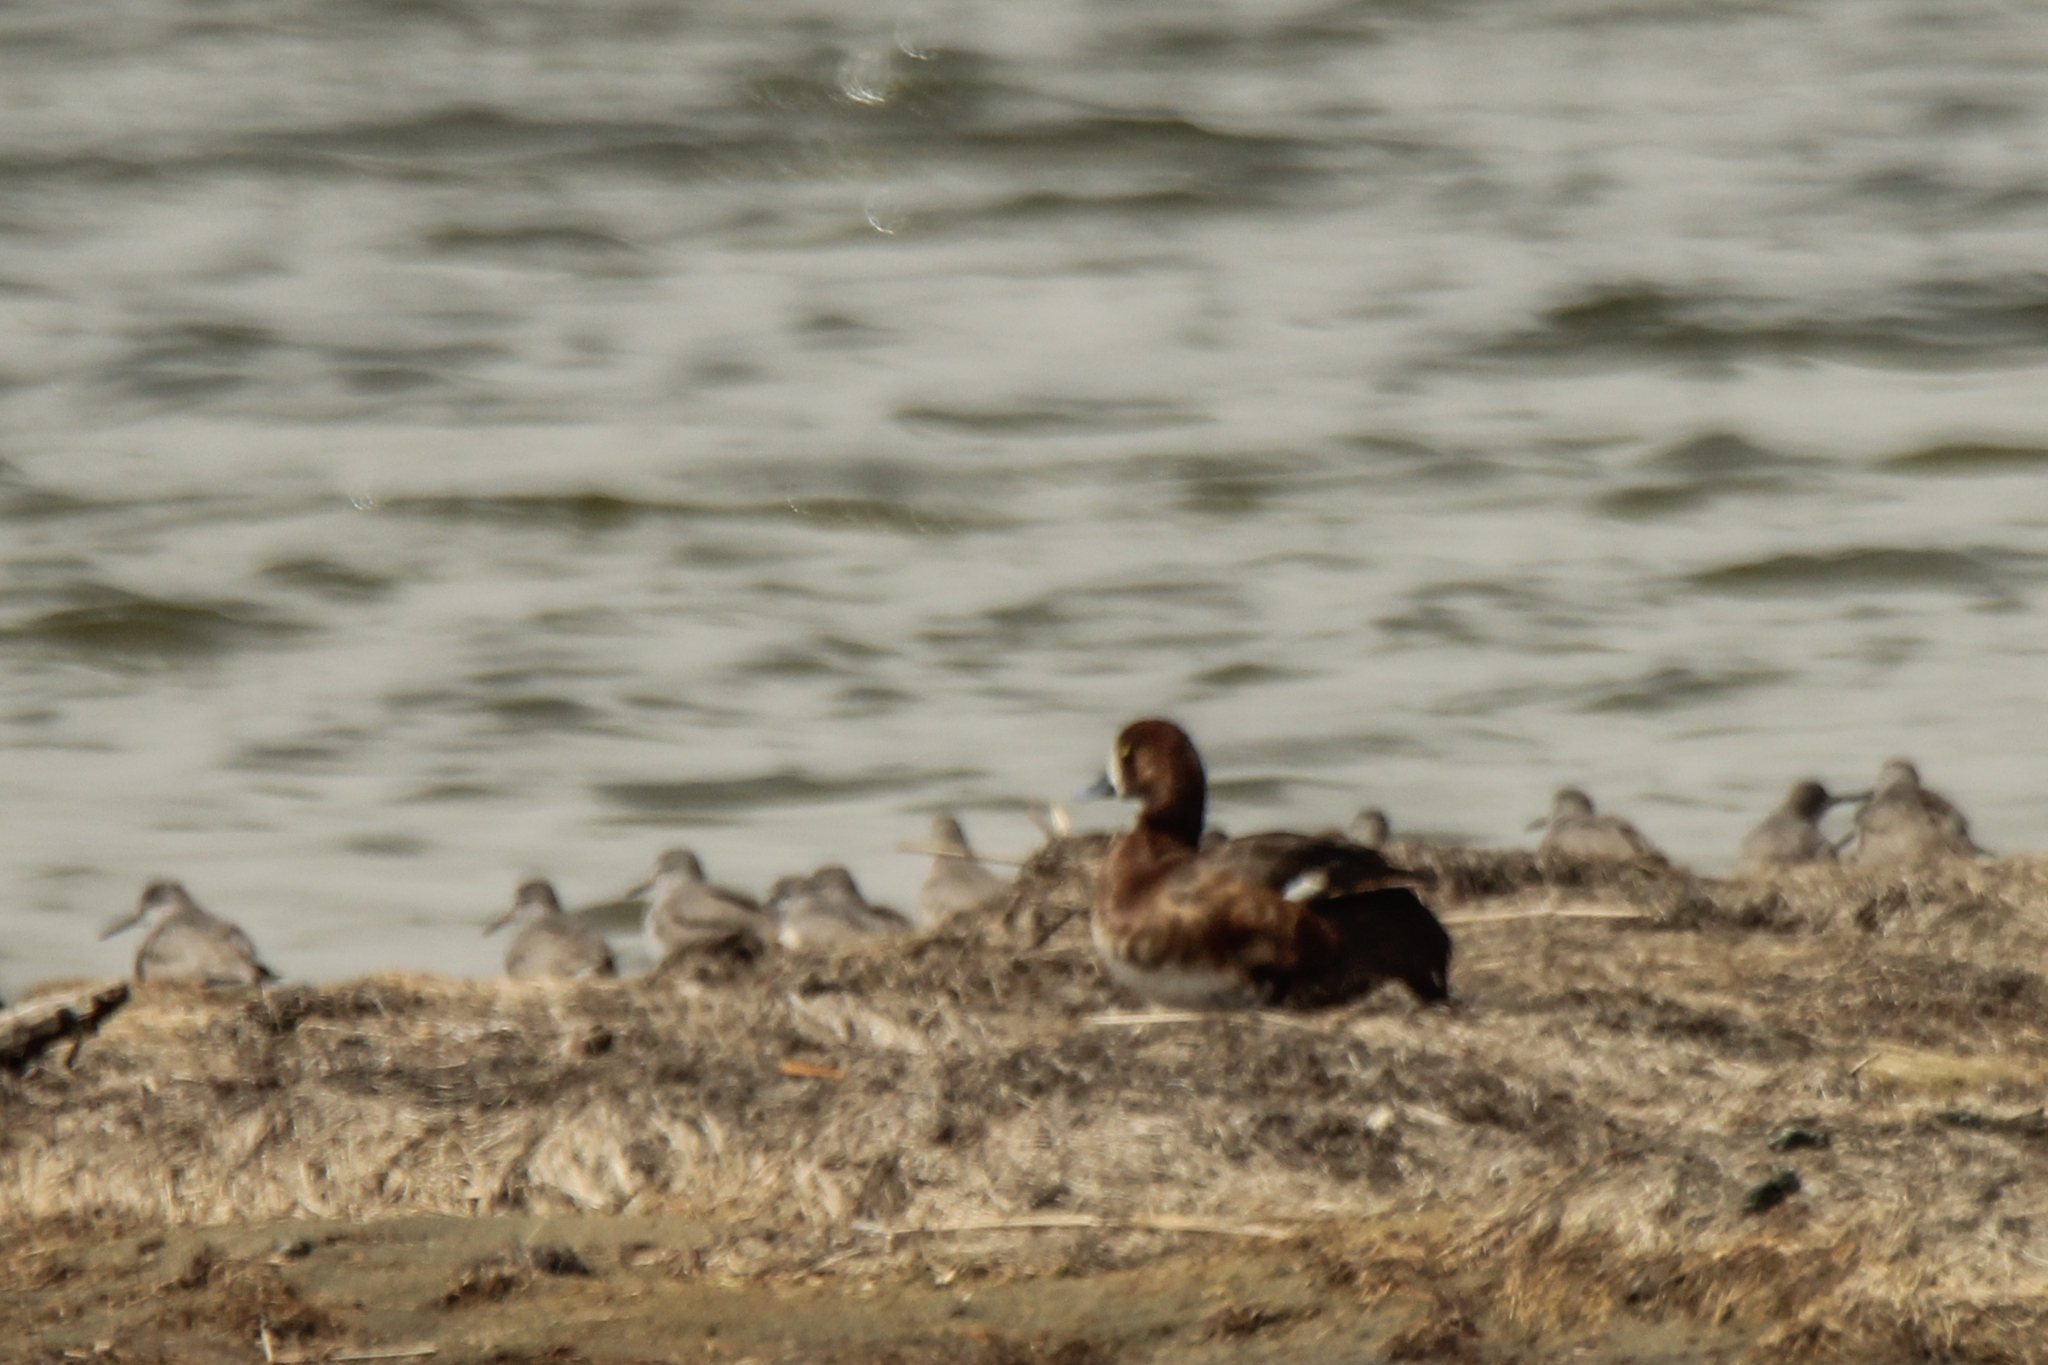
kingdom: Animalia
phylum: Chordata
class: Aves
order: Anseriformes
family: Anatidae
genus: Aythya
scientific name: Aythya marila
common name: Greater scaup
